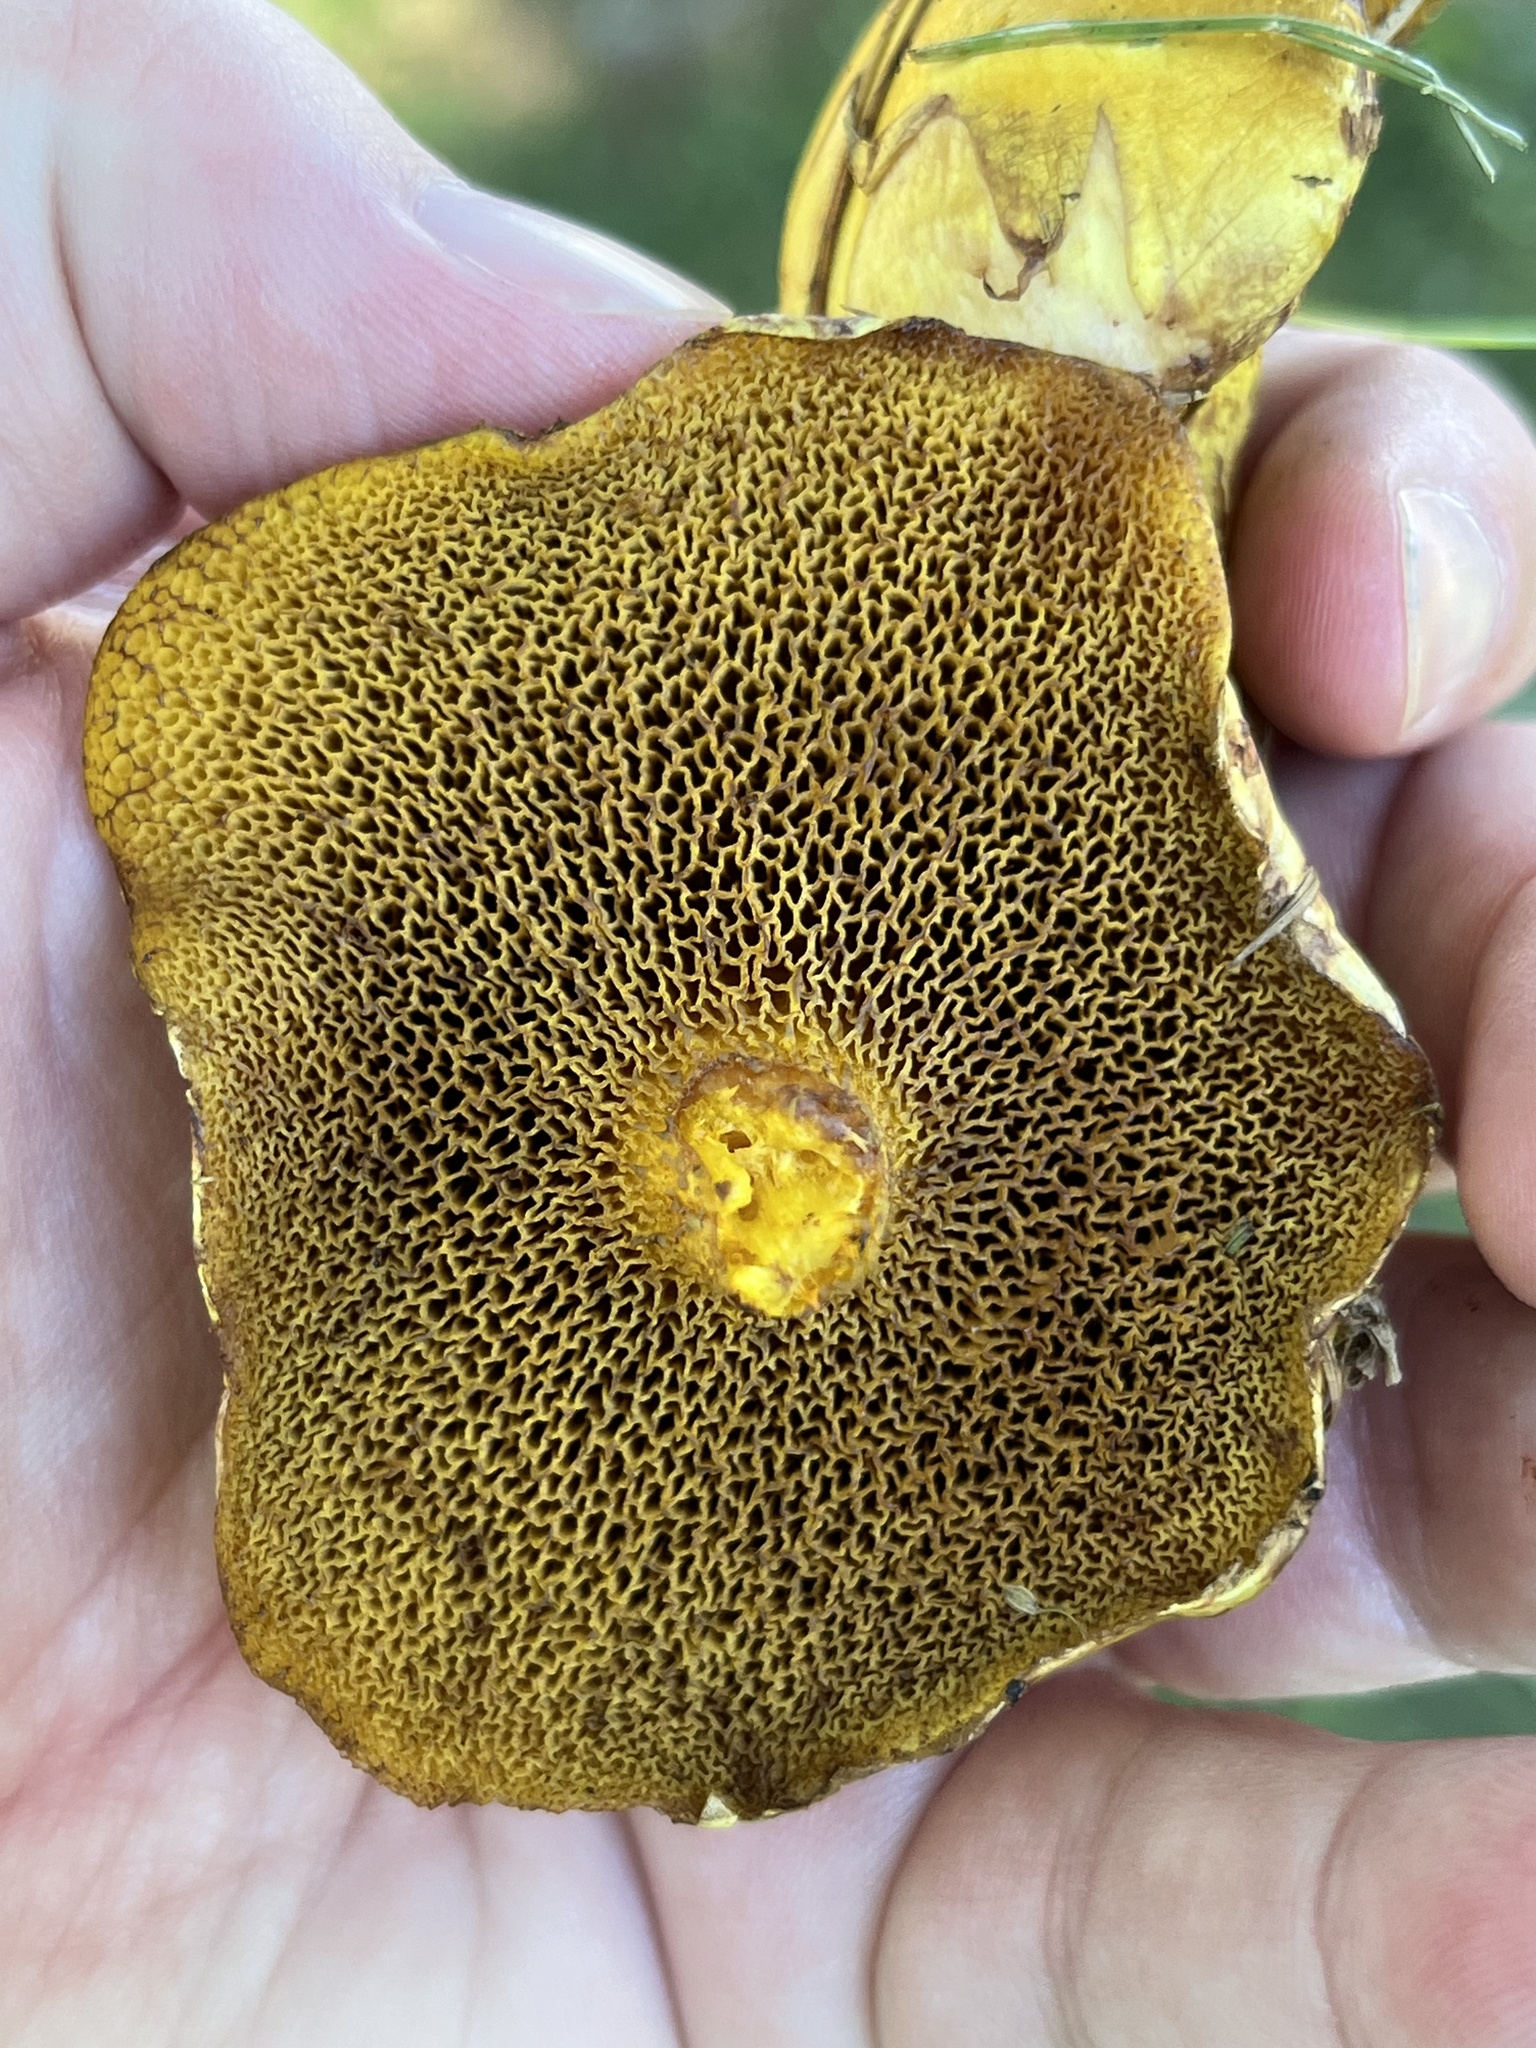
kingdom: Fungi
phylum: Basidiomycota
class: Agaricomycetes
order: Boletales
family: Suillaceae
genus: Suillus
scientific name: Suillus americanus
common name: Chicken fat mushroom
